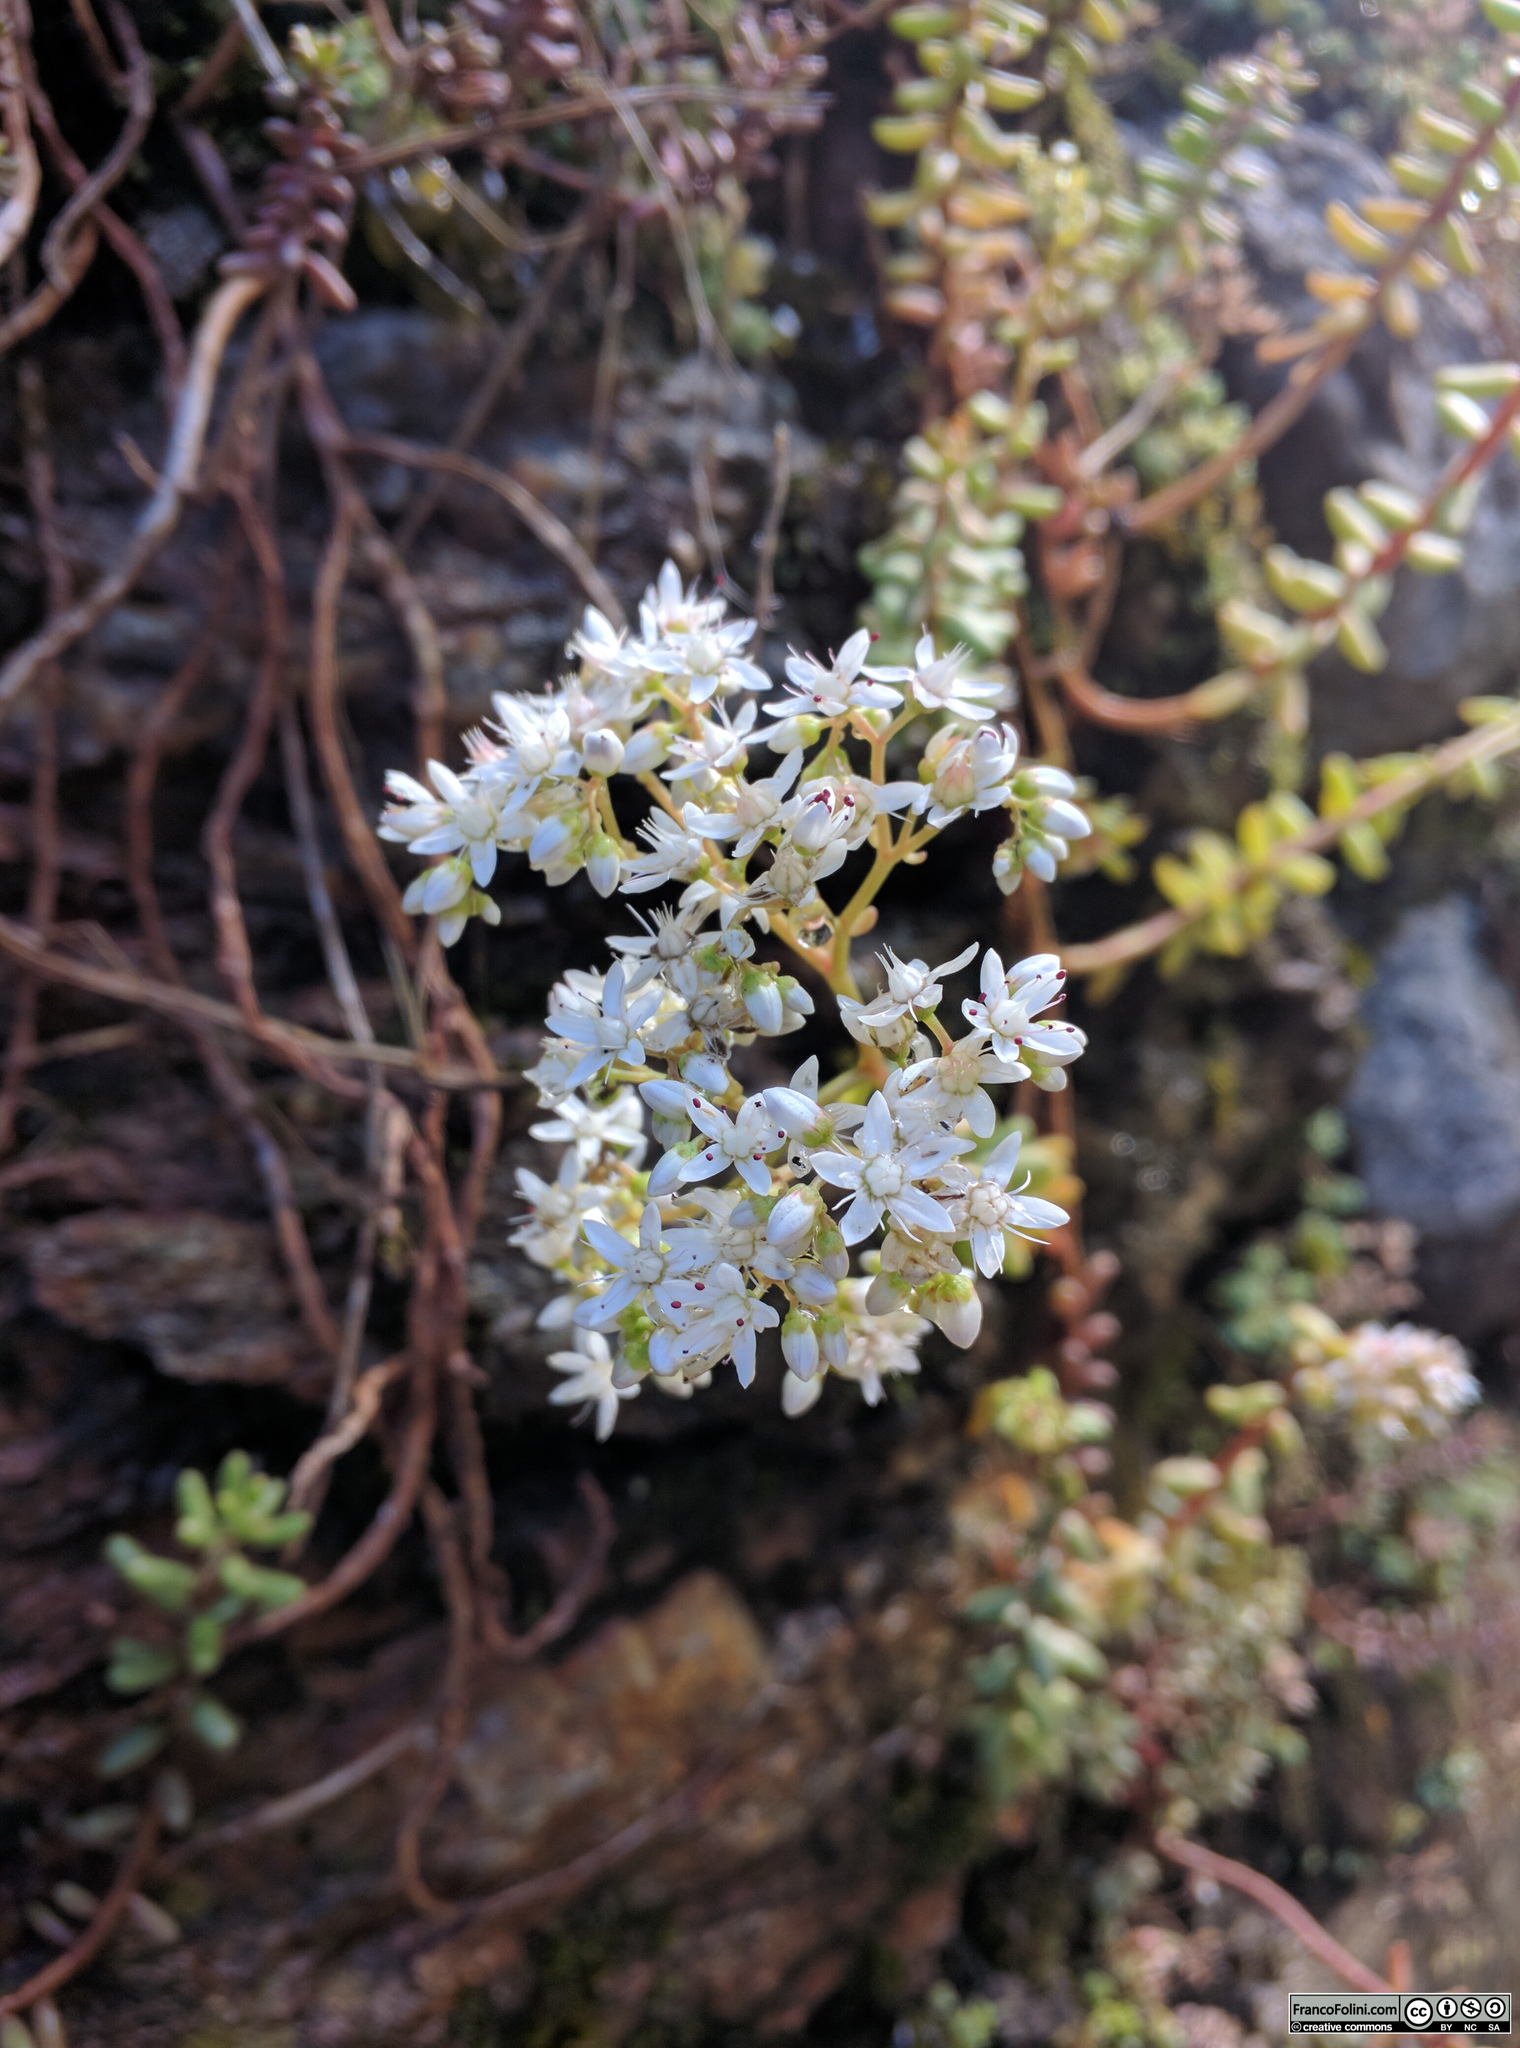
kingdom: Plantae
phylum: Tracheophyta
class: Magnoliopsida
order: Saxifragales
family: Crassulaceae
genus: Sedum
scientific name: Sedum album
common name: White stonecrop
